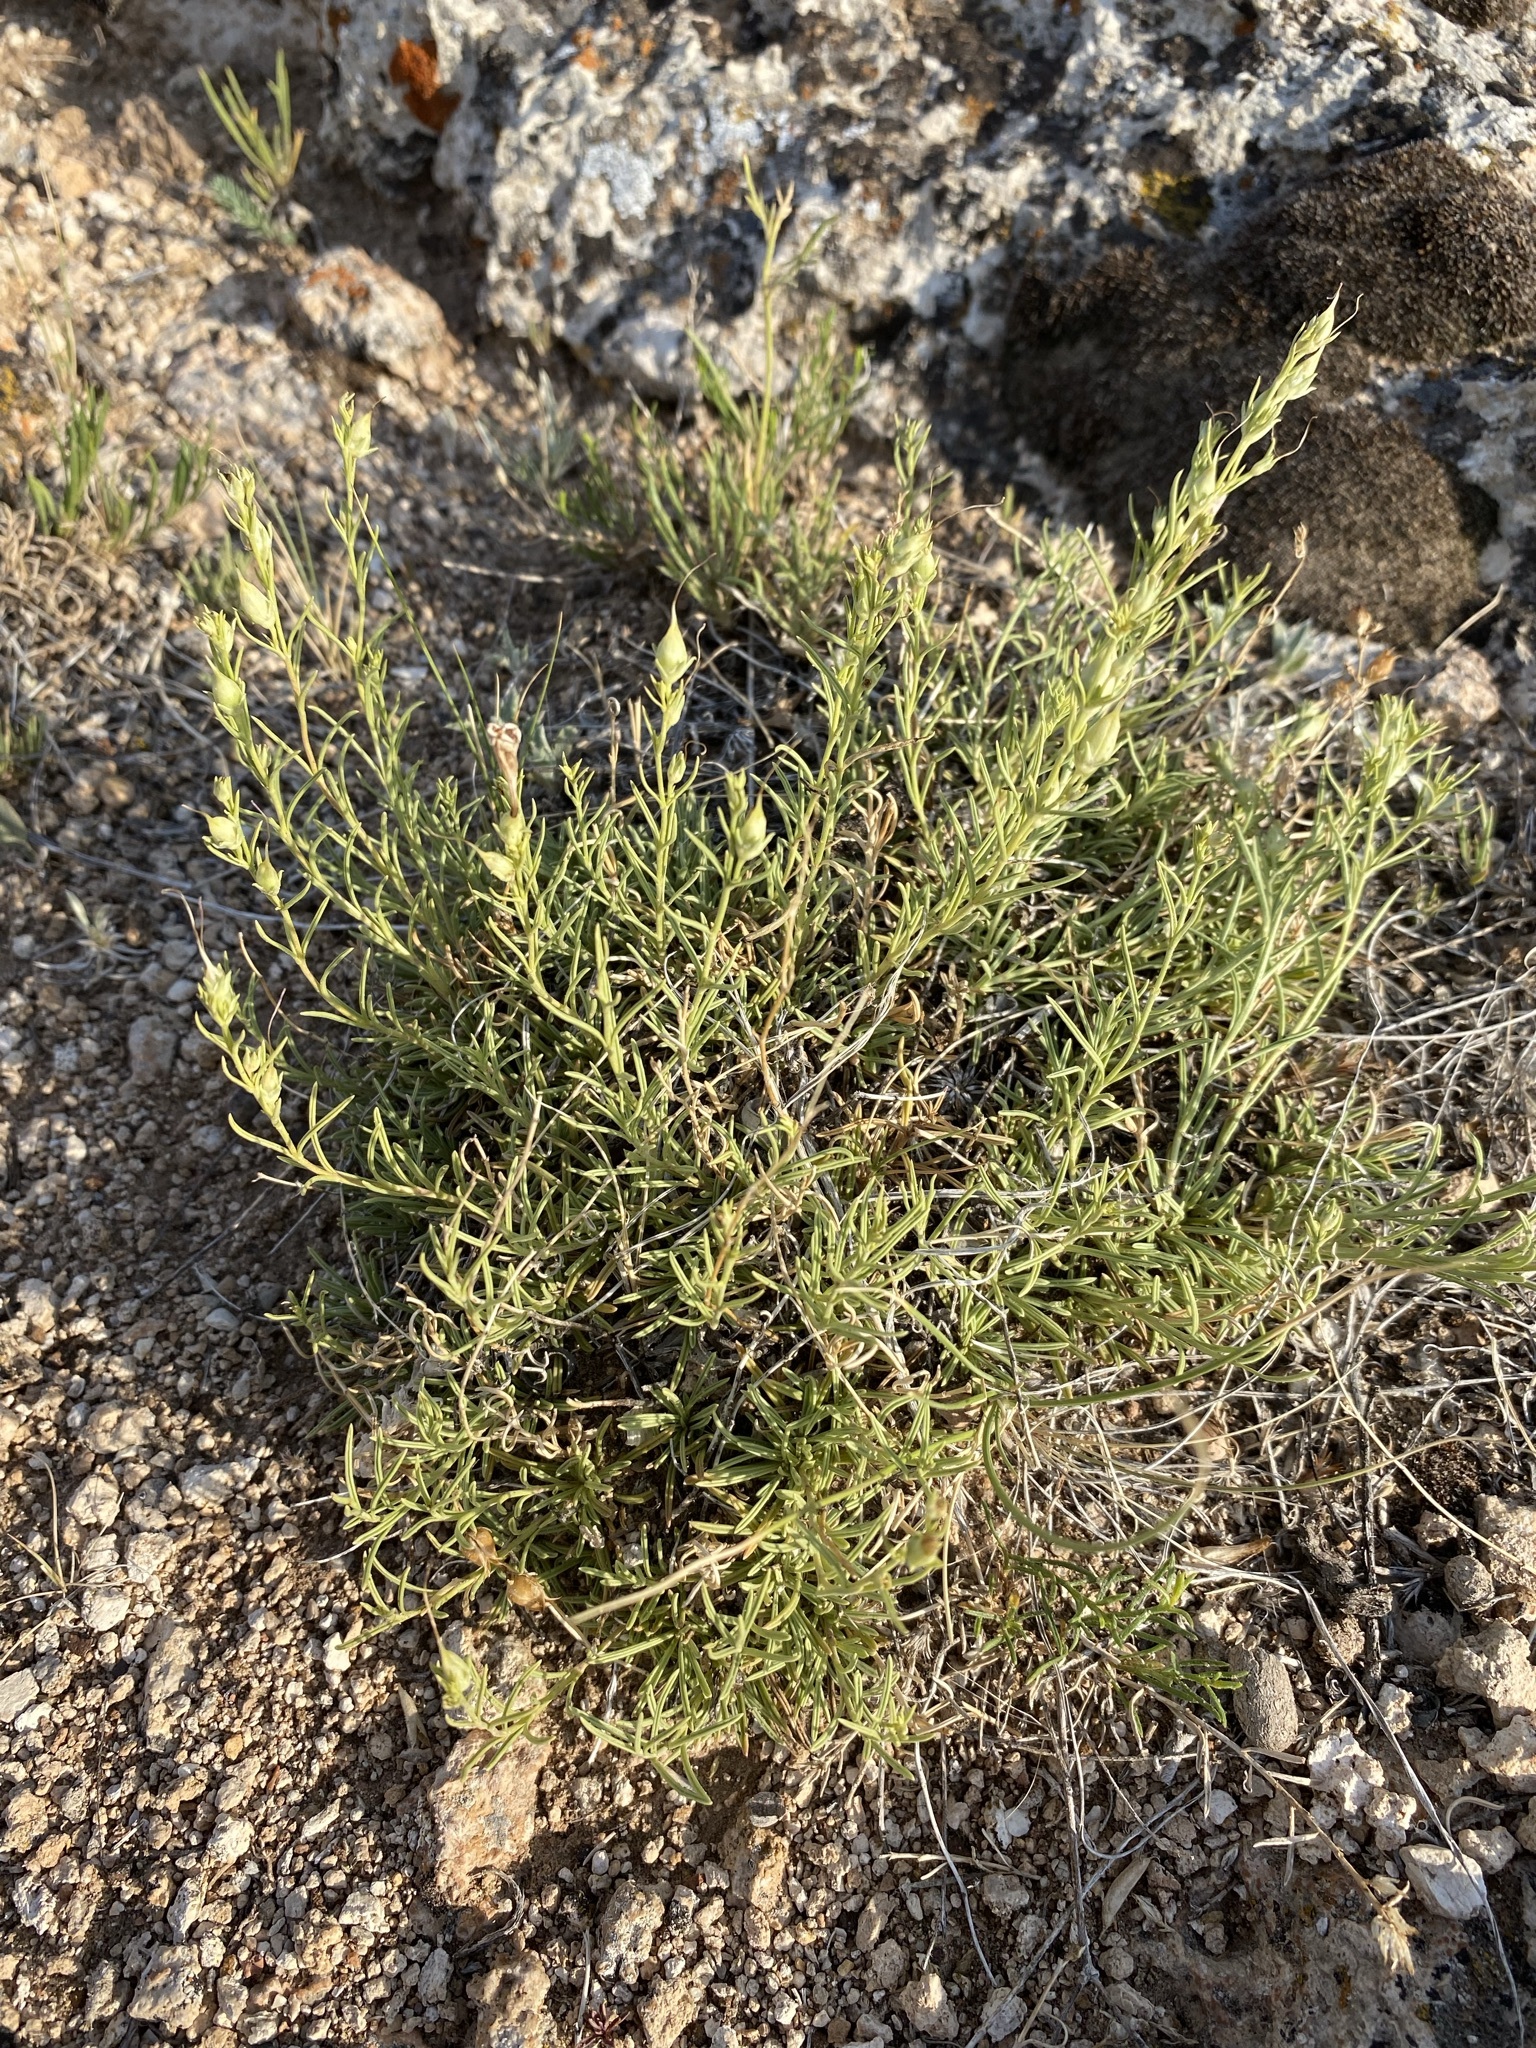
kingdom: Plantae
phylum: Tracheophyta
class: Magnoliopsida
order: Lamiales
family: Plantaginaceae
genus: Penstemon
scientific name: Penstemon laricifolius
